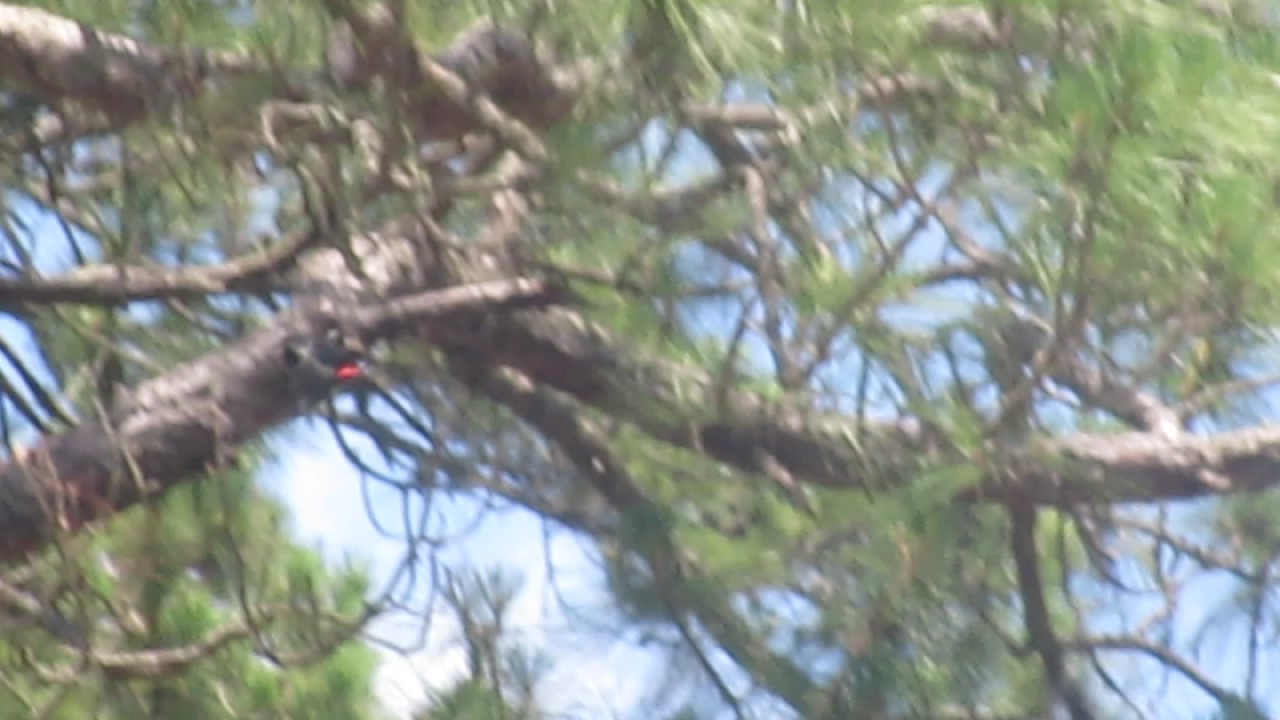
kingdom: Animalia
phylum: Chordata
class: Aves
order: Piciformes
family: Picidae
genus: Melanerpes
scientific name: Melanerpes carolinus
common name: Red-bellied woodpecker
